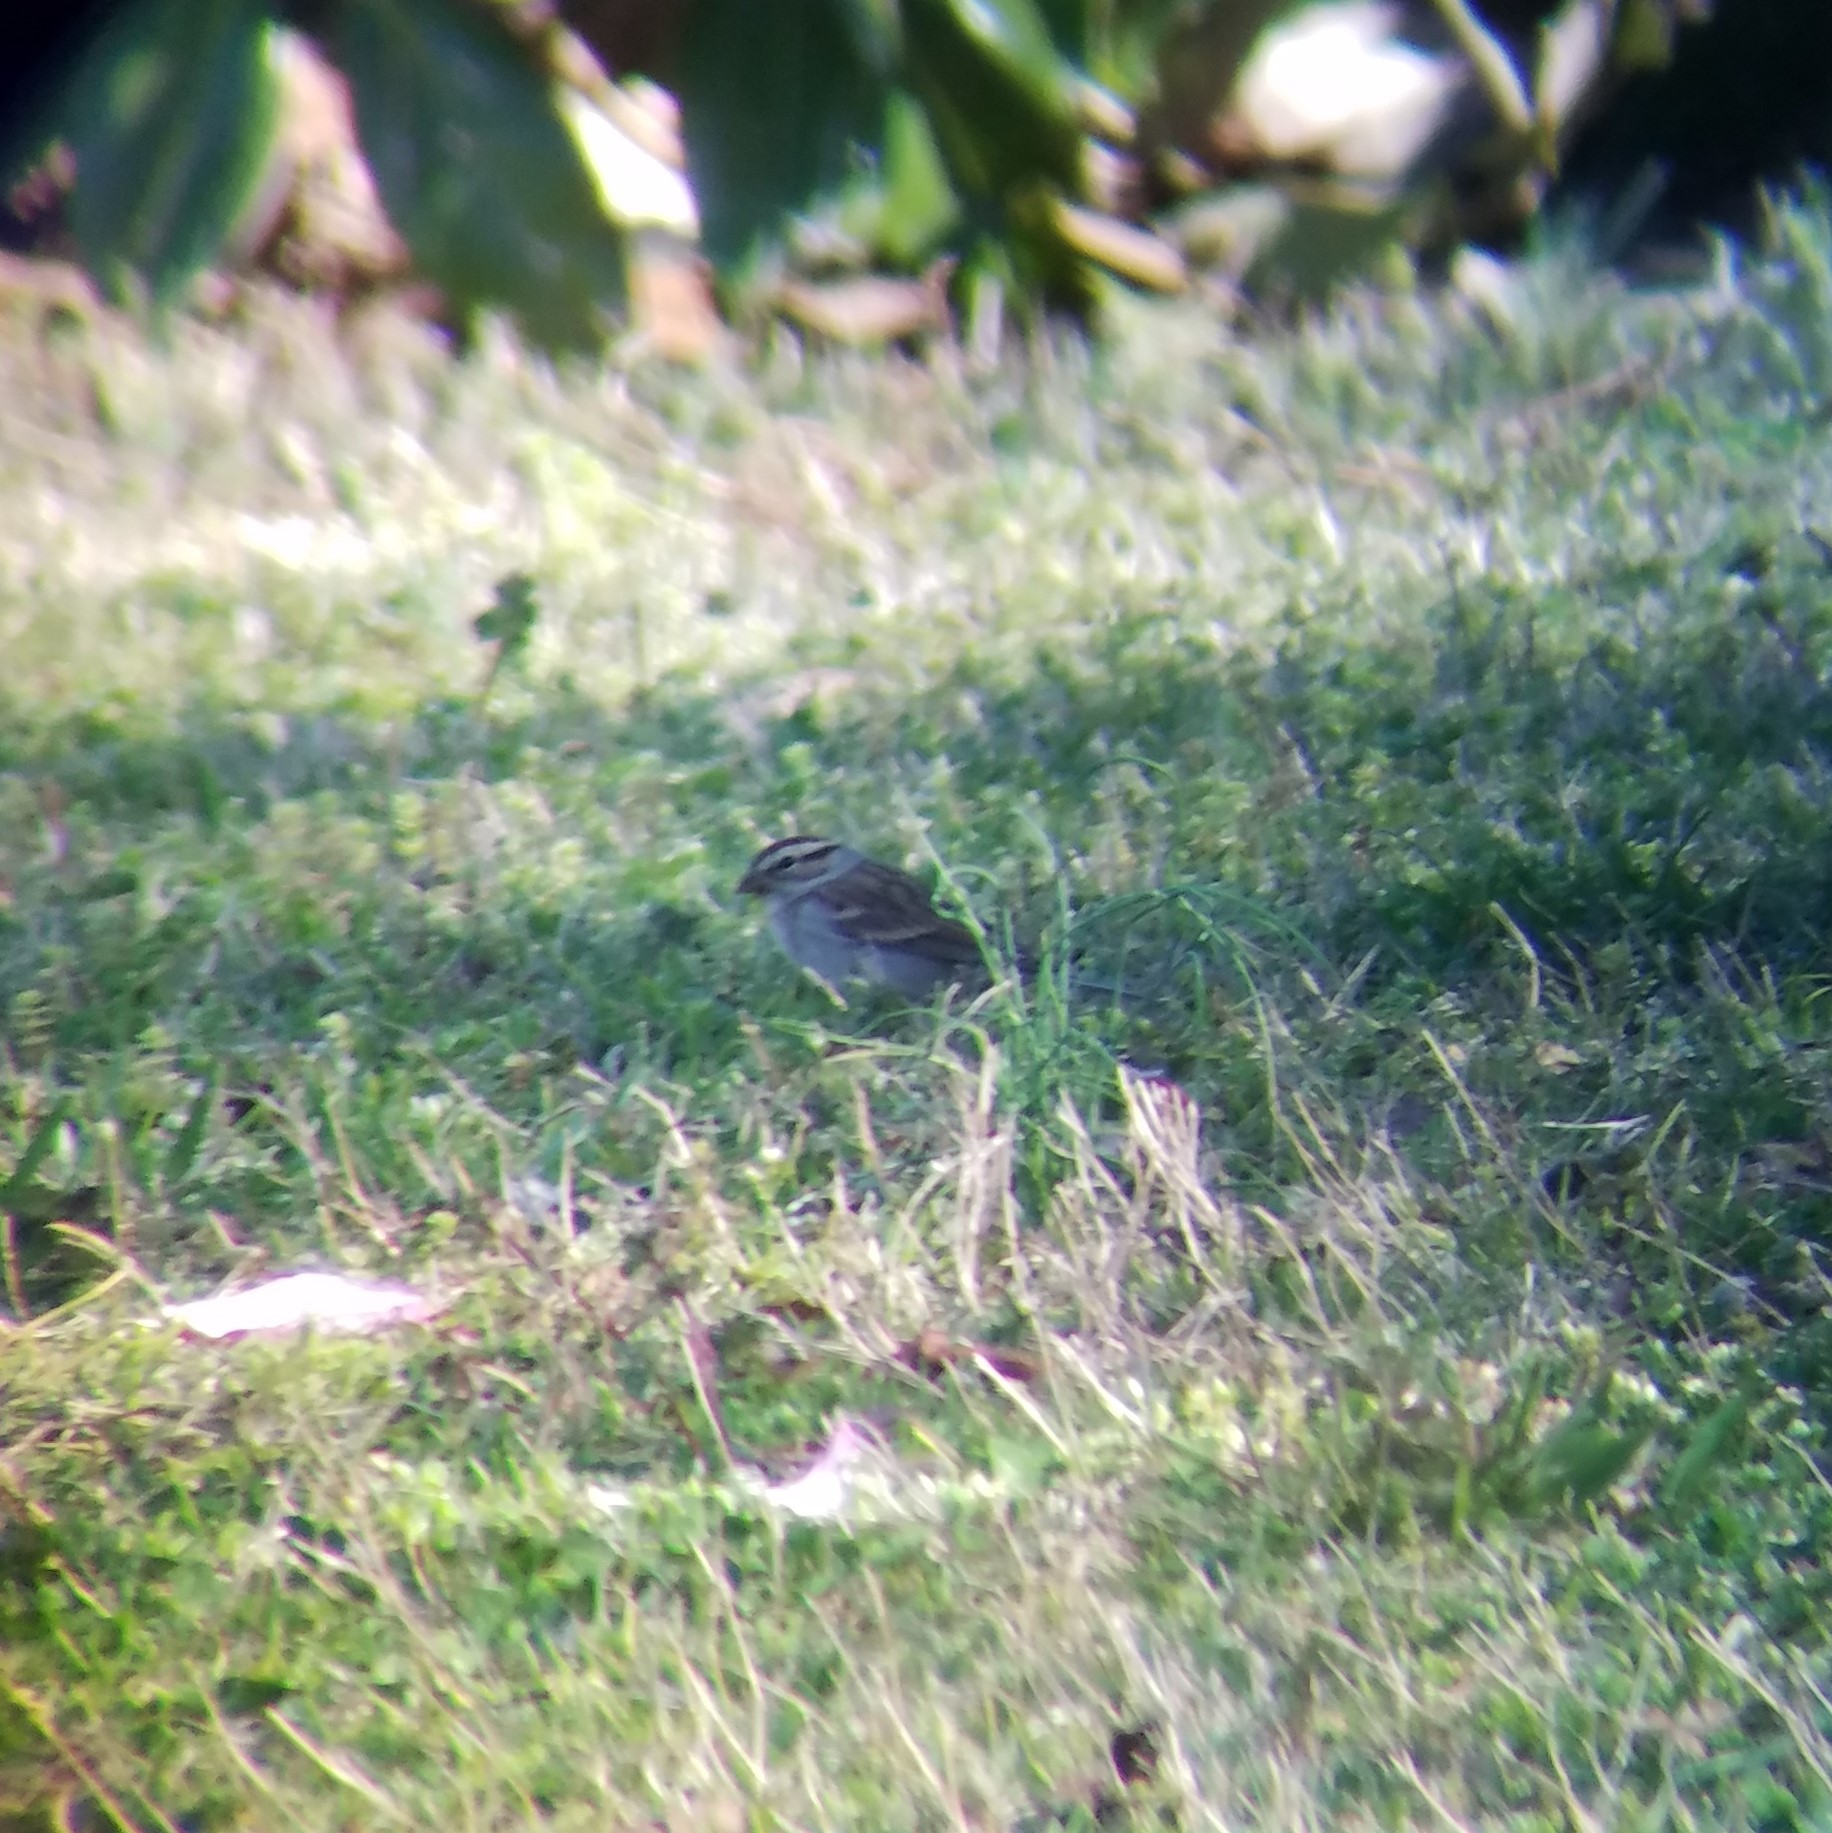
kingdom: Animalia
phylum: Chordata
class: Aves
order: Passeriformes
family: Passerellidae
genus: Spizella
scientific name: Spizella passerina
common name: Chipping sparrow
